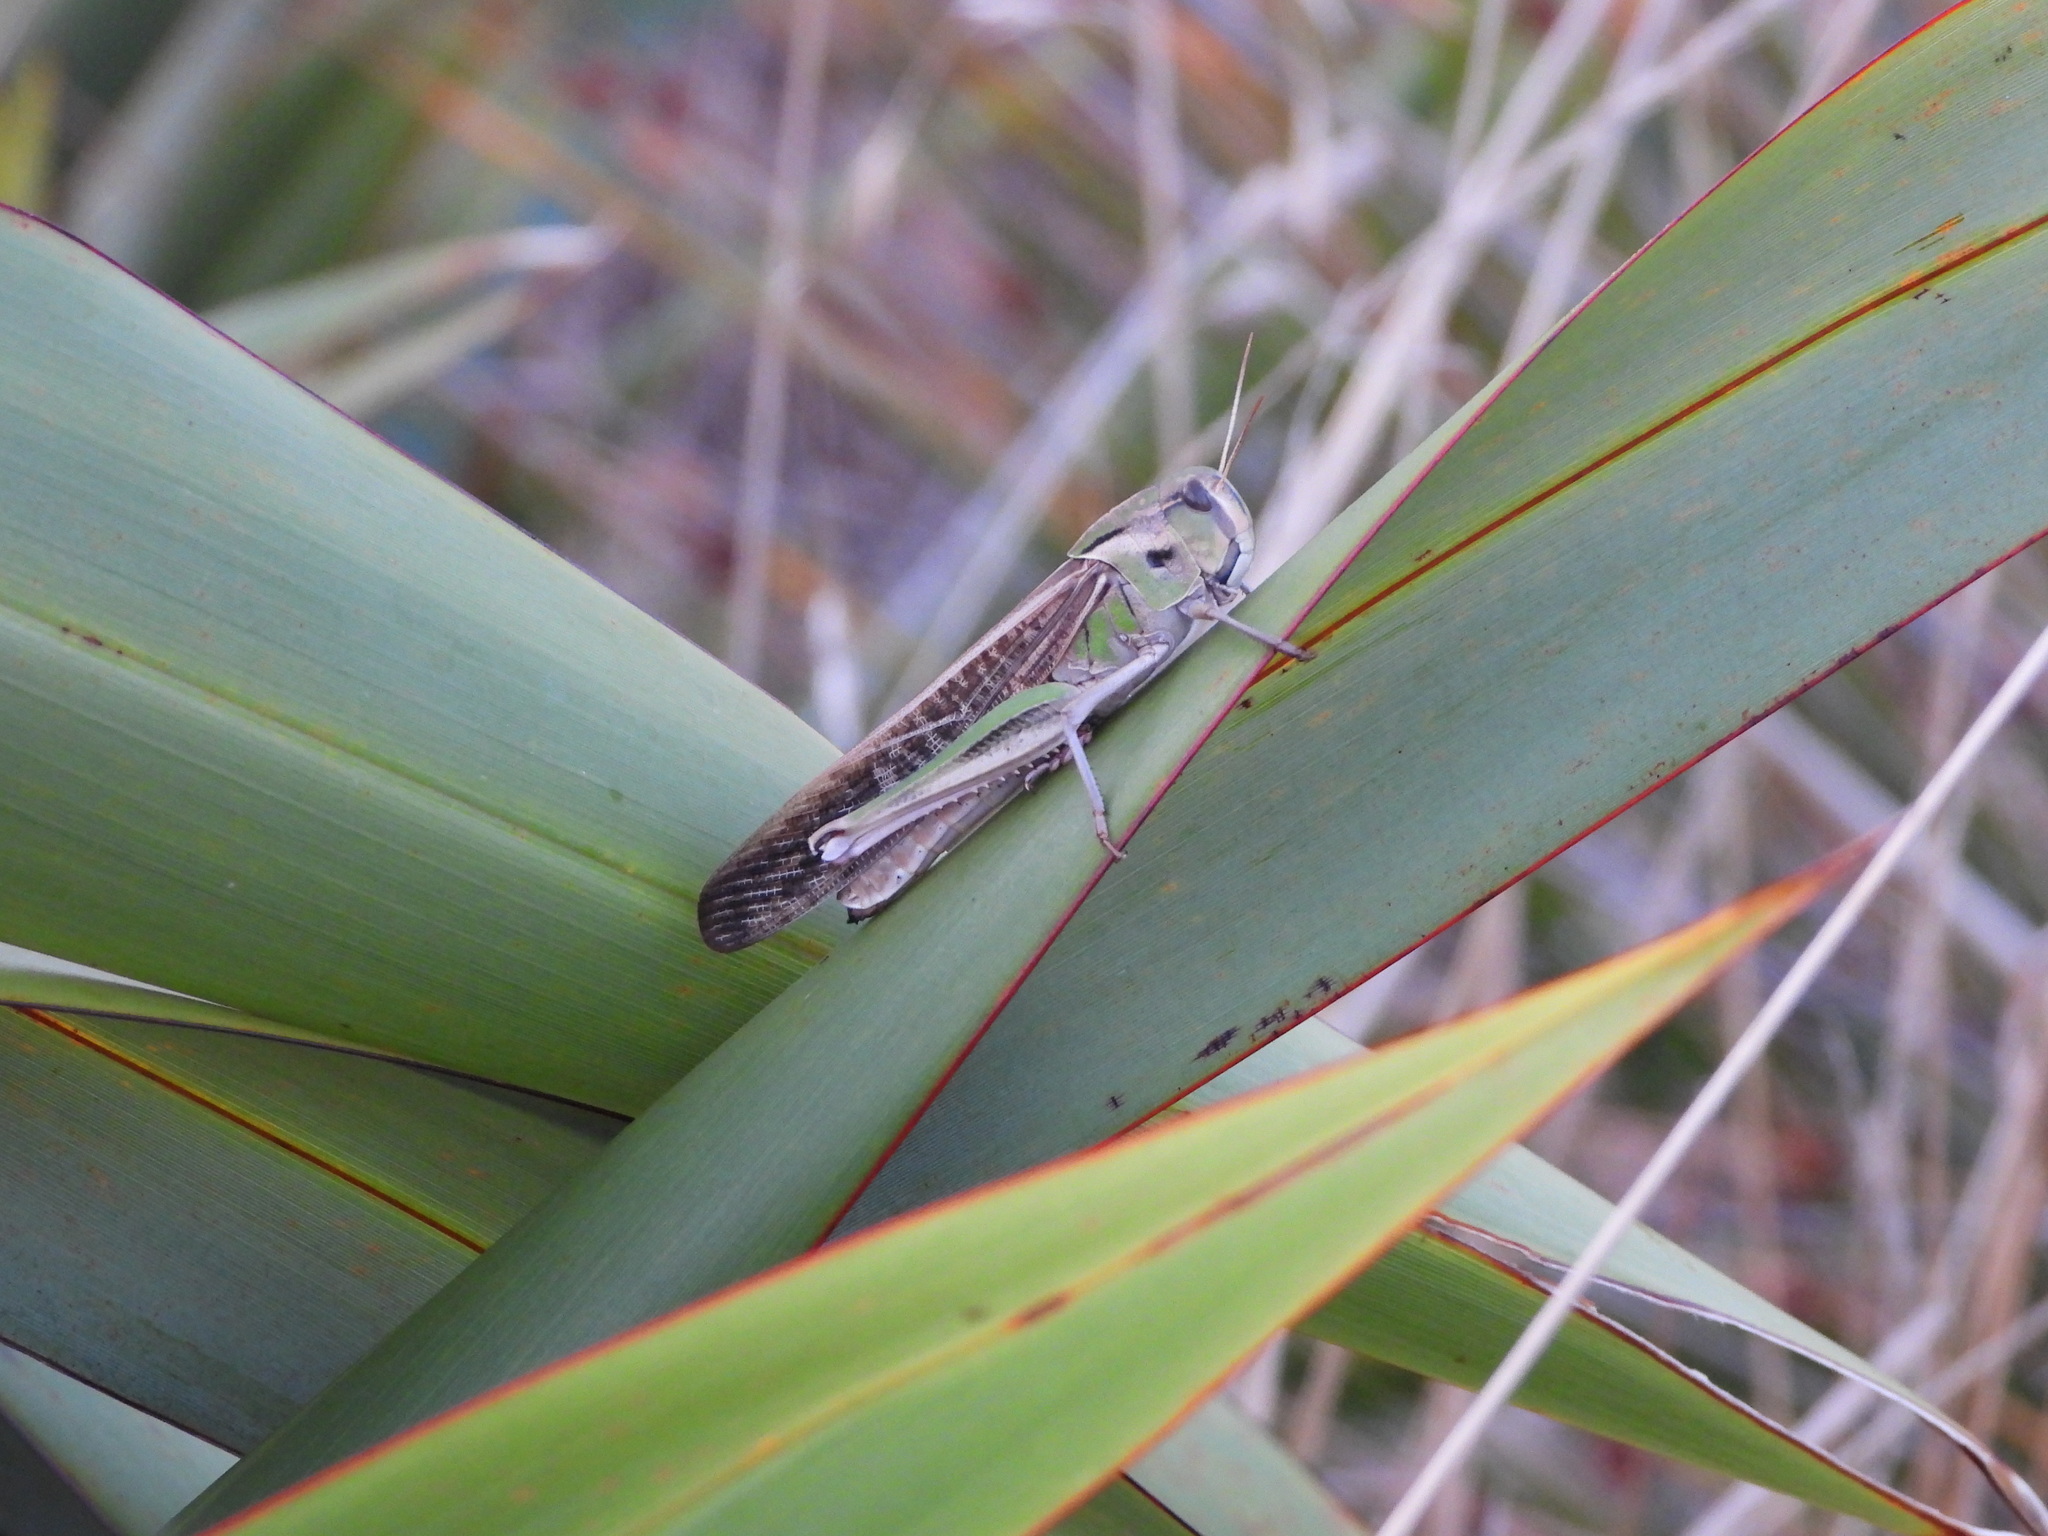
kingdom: Animalia
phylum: Arthropoda
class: Insecta
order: Orthoptera
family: Acrididae
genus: Locusta
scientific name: Locusta migratoria
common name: Migratory locust
